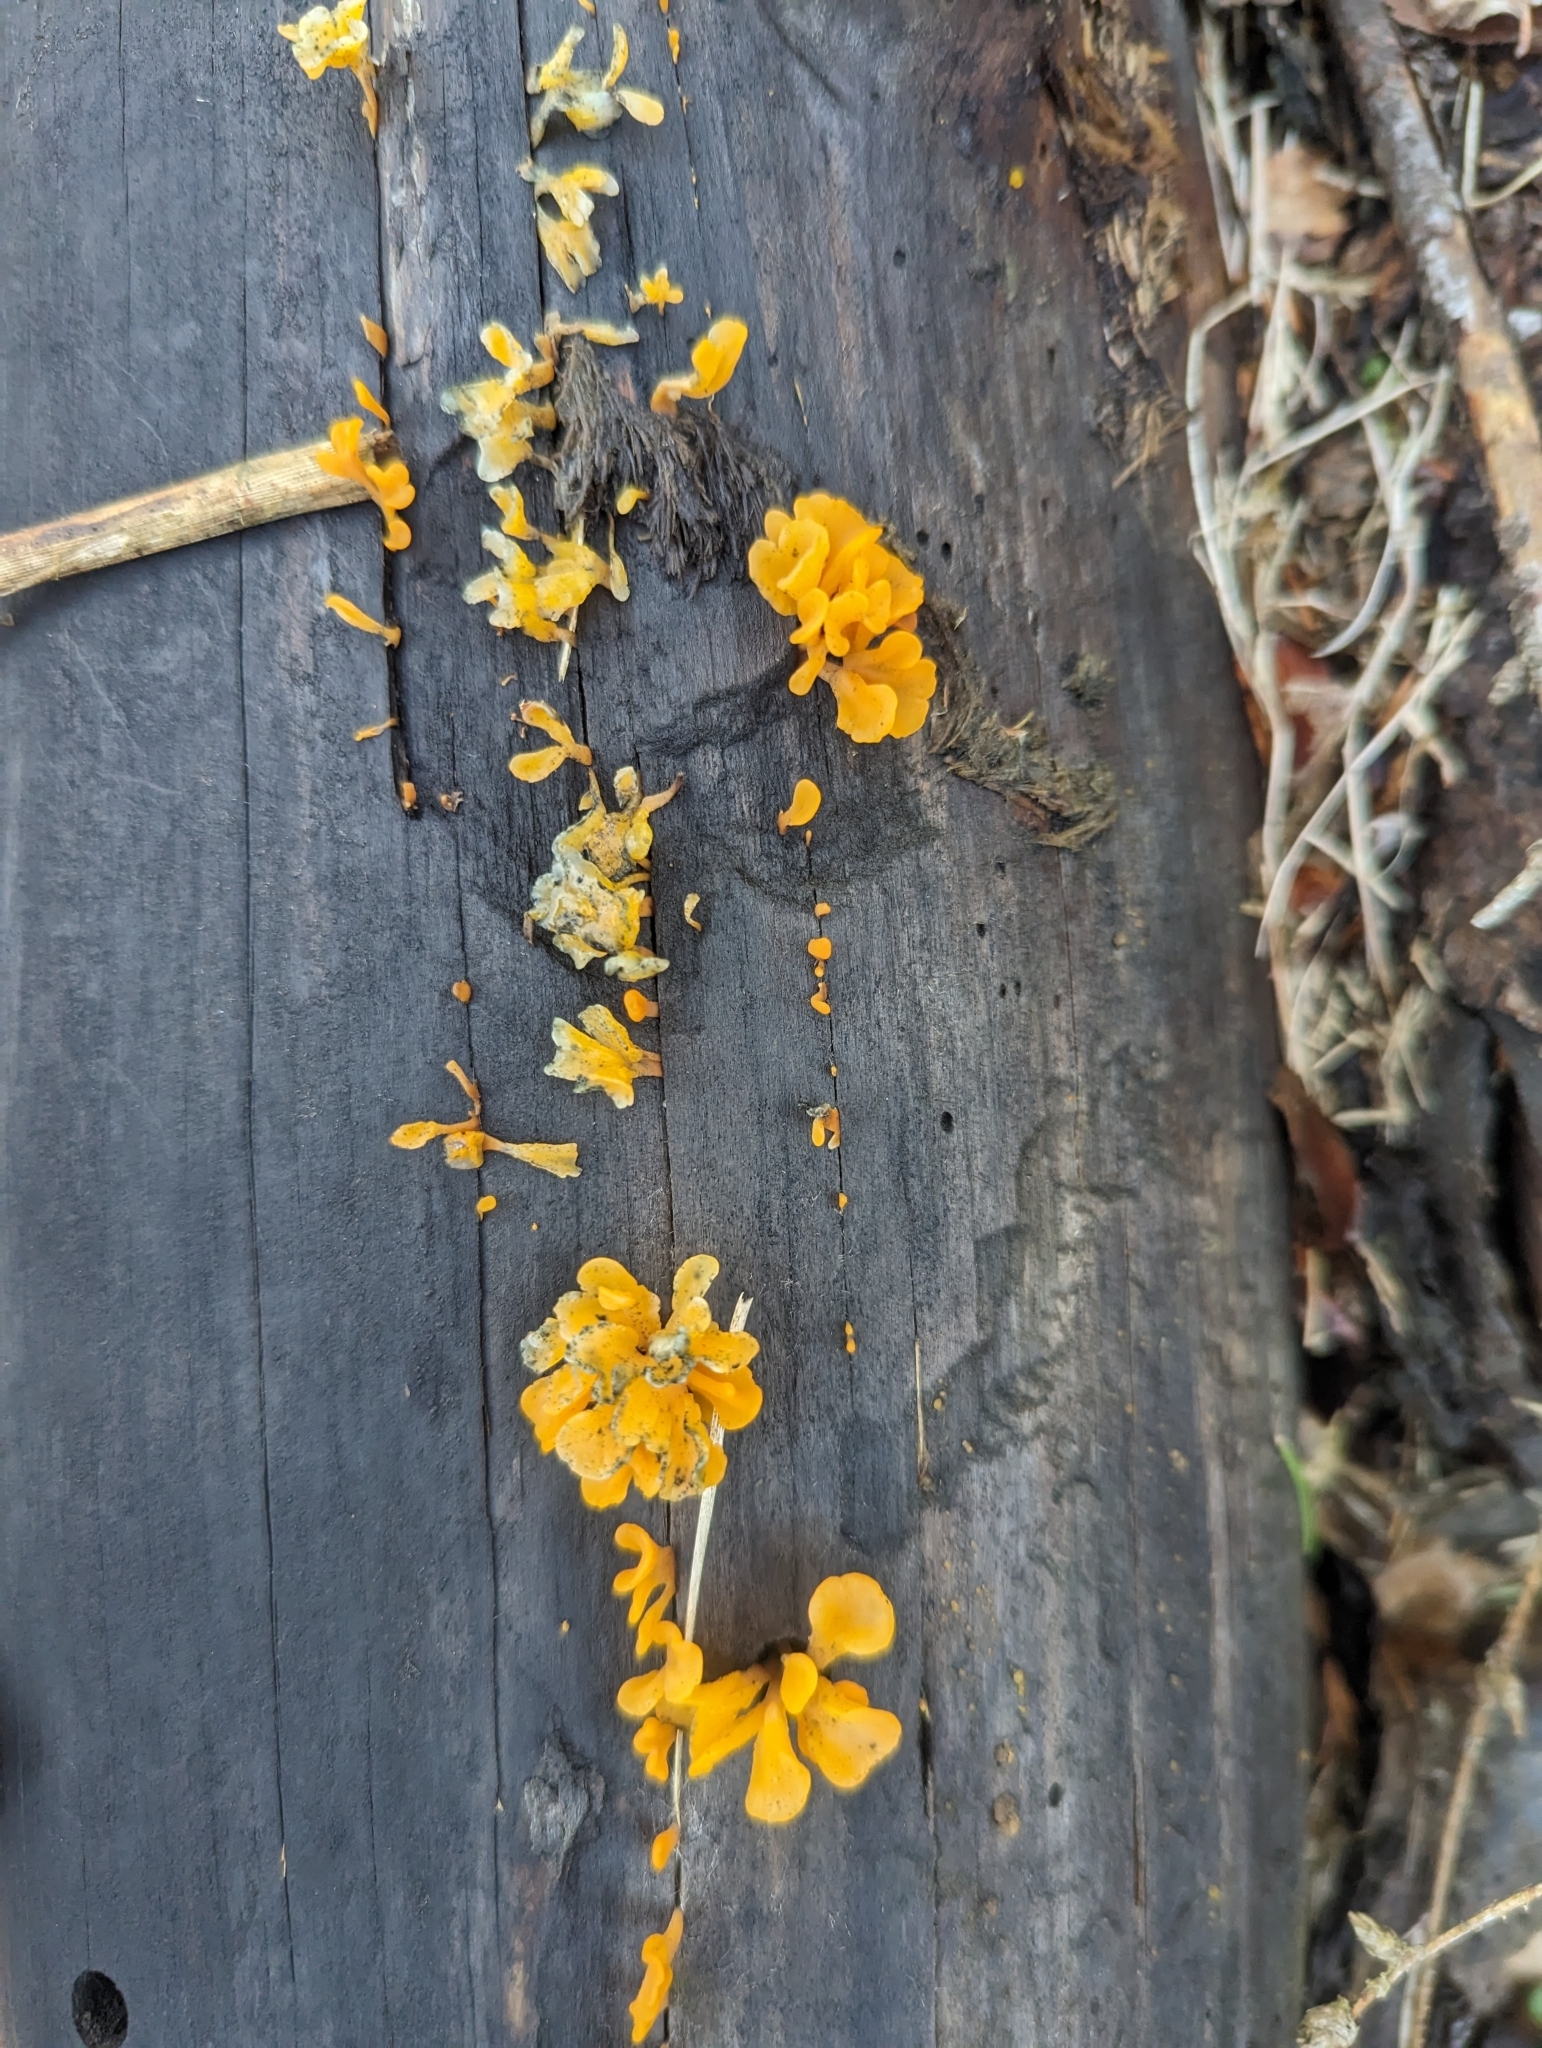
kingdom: Fungi
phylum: Basidiomycota
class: Dacrymycetes
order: Dacrymycetales
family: Dacrymycetaceae
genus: Dacrymyces
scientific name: Dacrymyces spathularius
